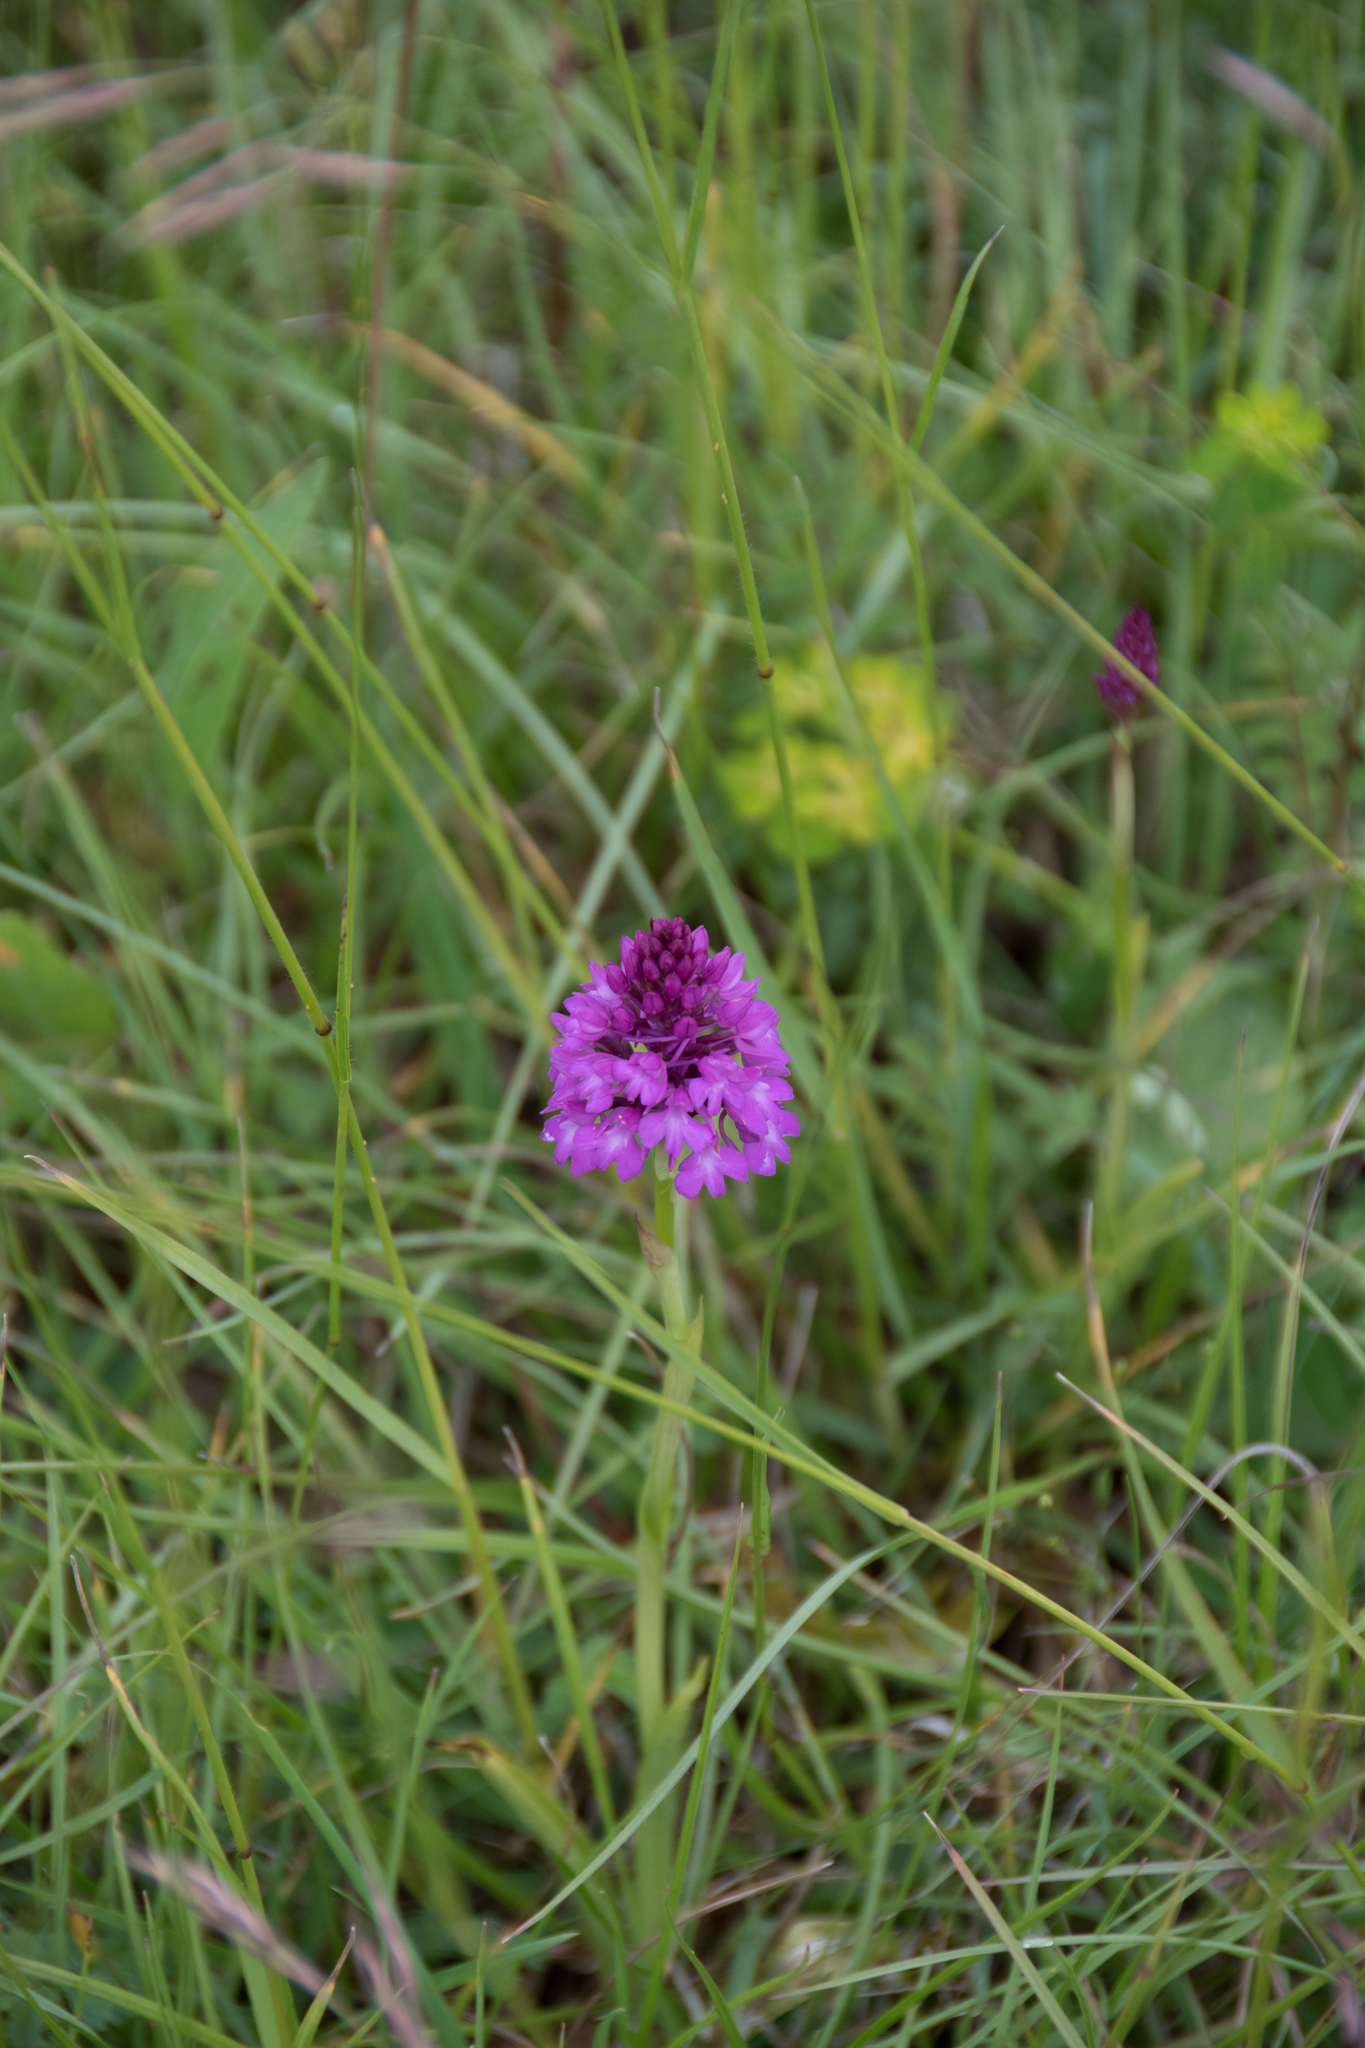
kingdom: Plantae
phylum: Tracheophyta
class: Liliopsida
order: Asparagales
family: Orchidaceae
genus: Anacamptis
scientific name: Anacamptis pyramidalis
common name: Pyramidal orchid
